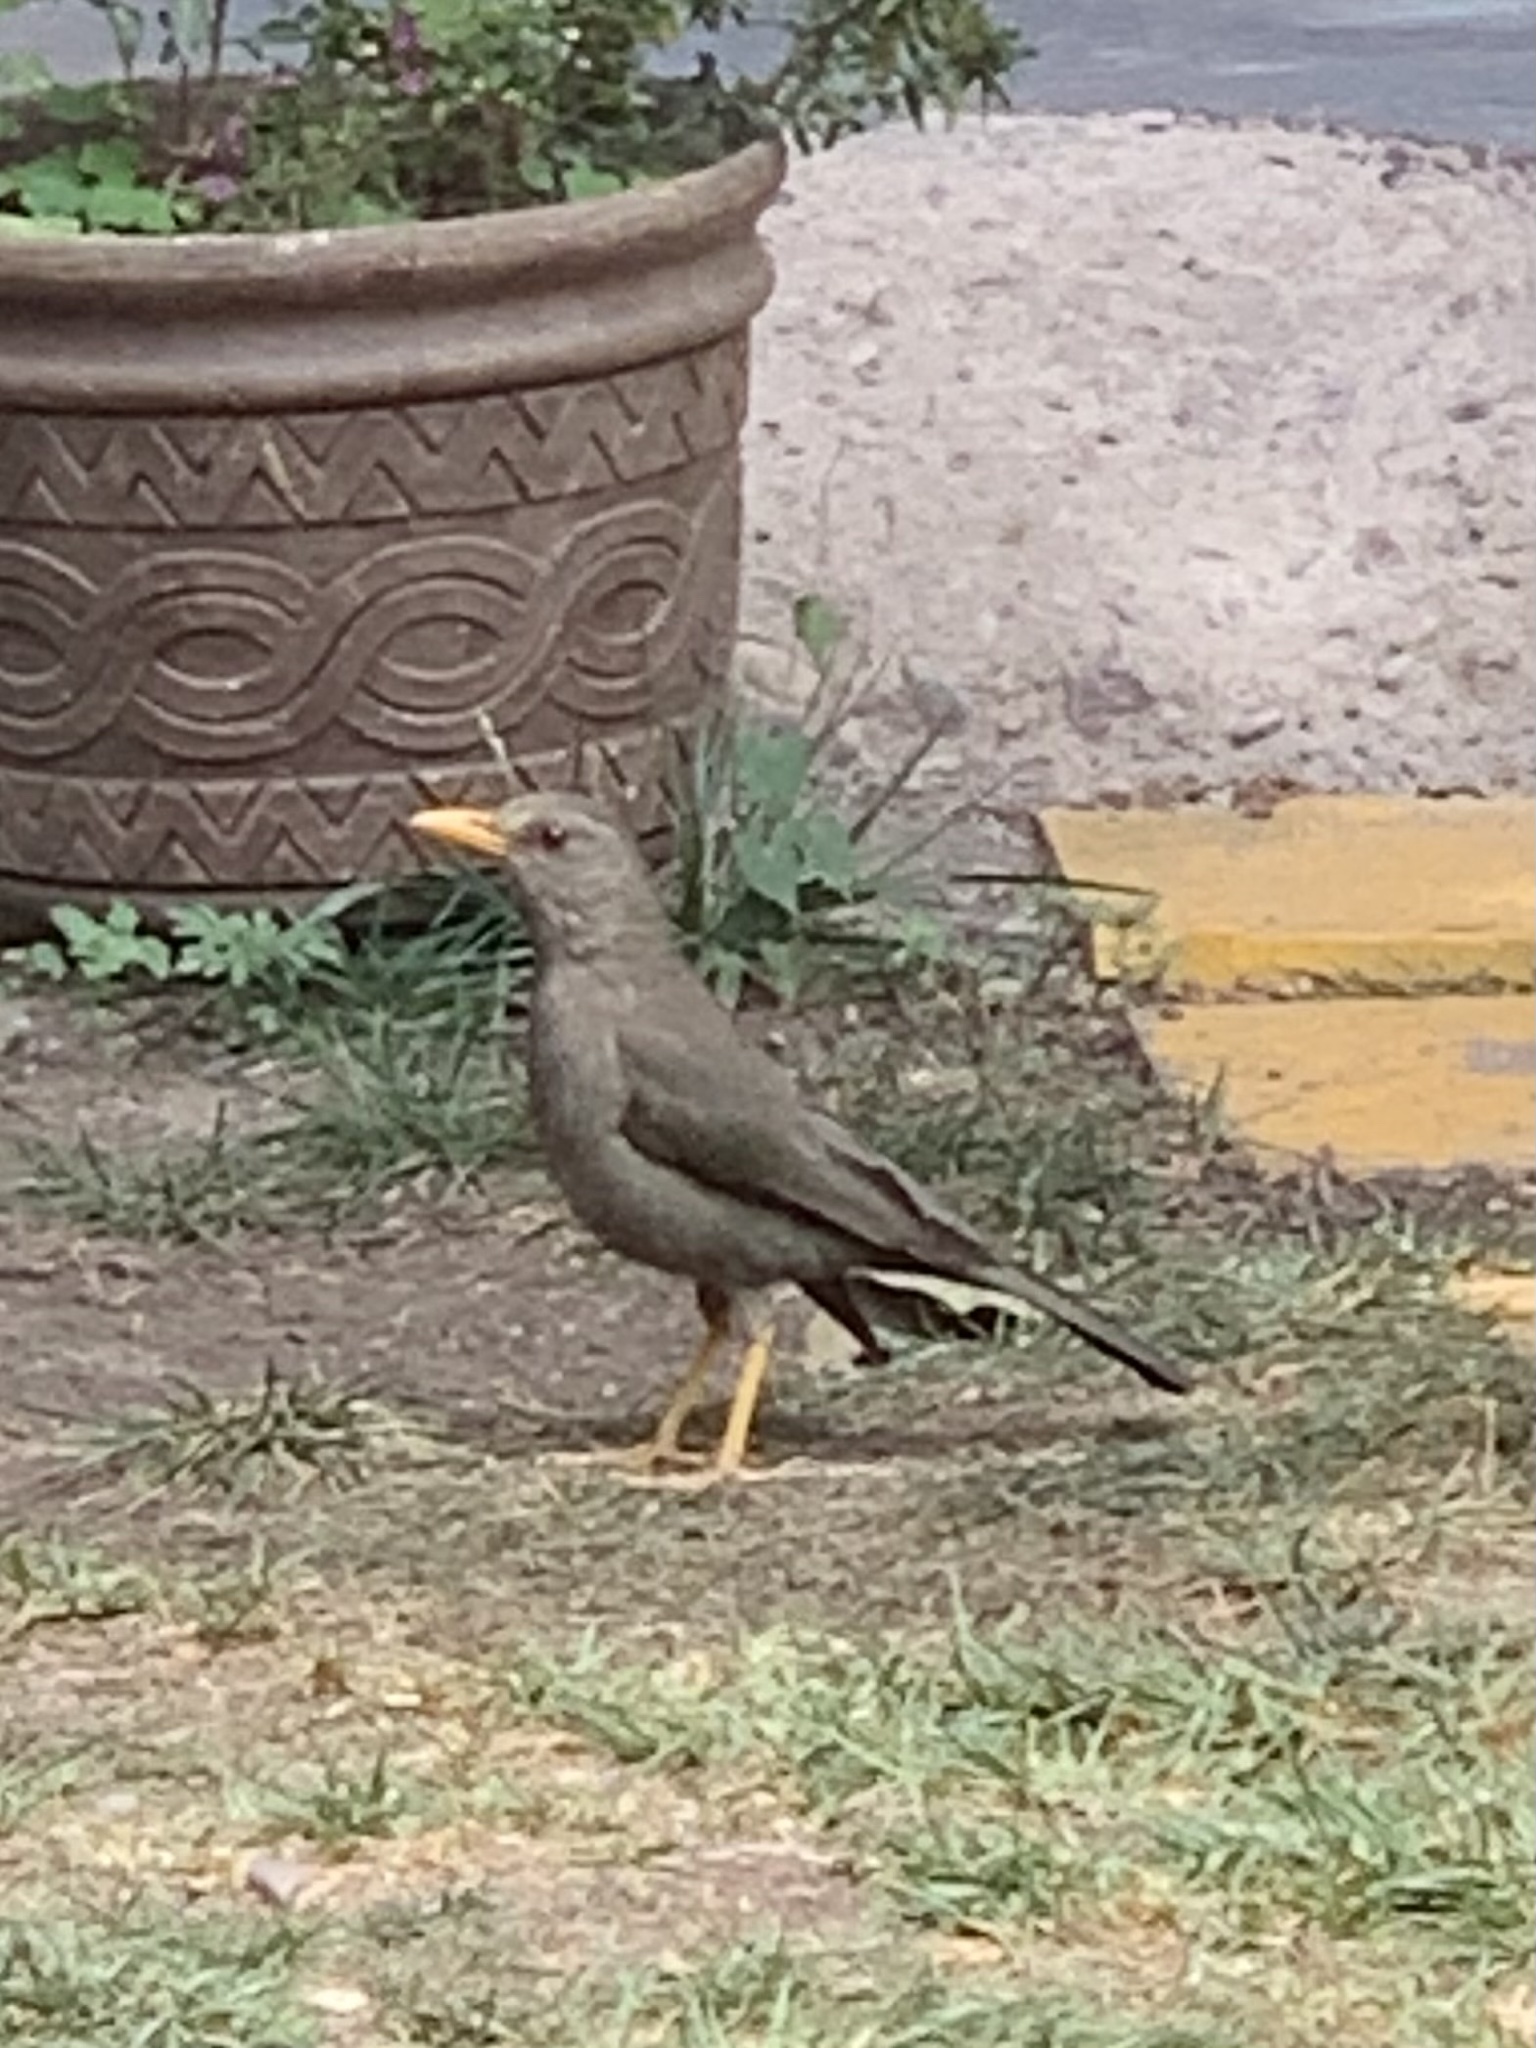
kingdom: Animalia
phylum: Chordata
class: Aves
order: Passeriformes
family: Turdidae
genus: Turdus
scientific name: Turdus chiguanco
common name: Chiguanco thrush
